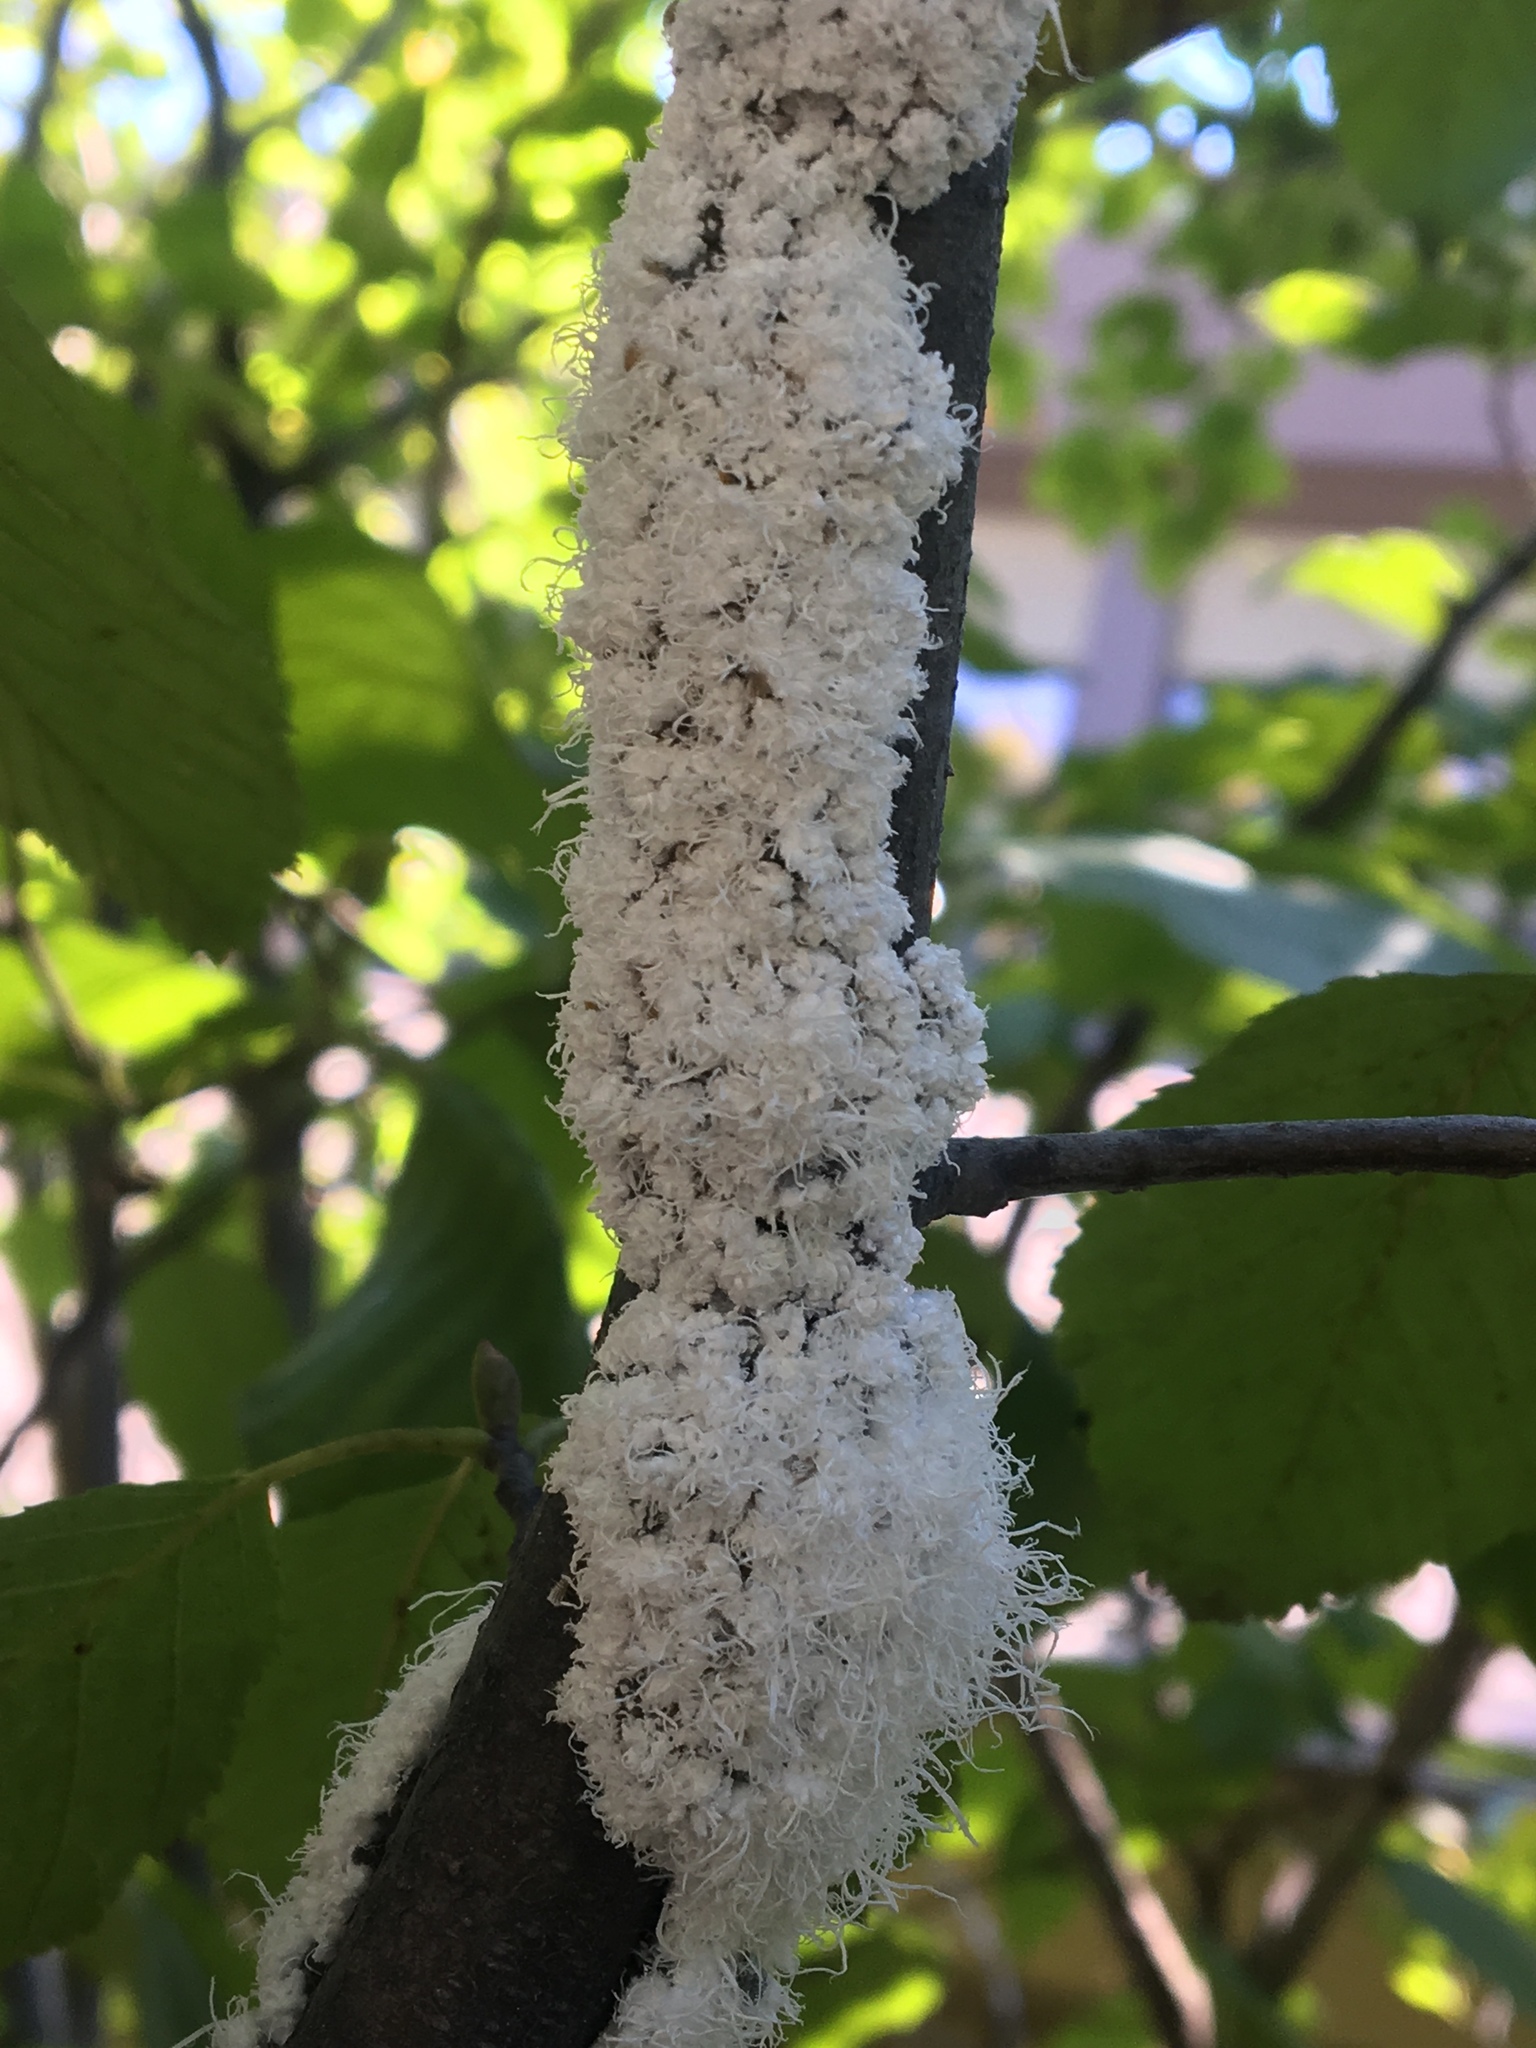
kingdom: Animalia
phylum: Arthropoda
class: Insecta
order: Hemiptera
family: Aphididae
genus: Prociphilus
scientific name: Prociphilus tessellatus
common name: Woolly alder aphid
